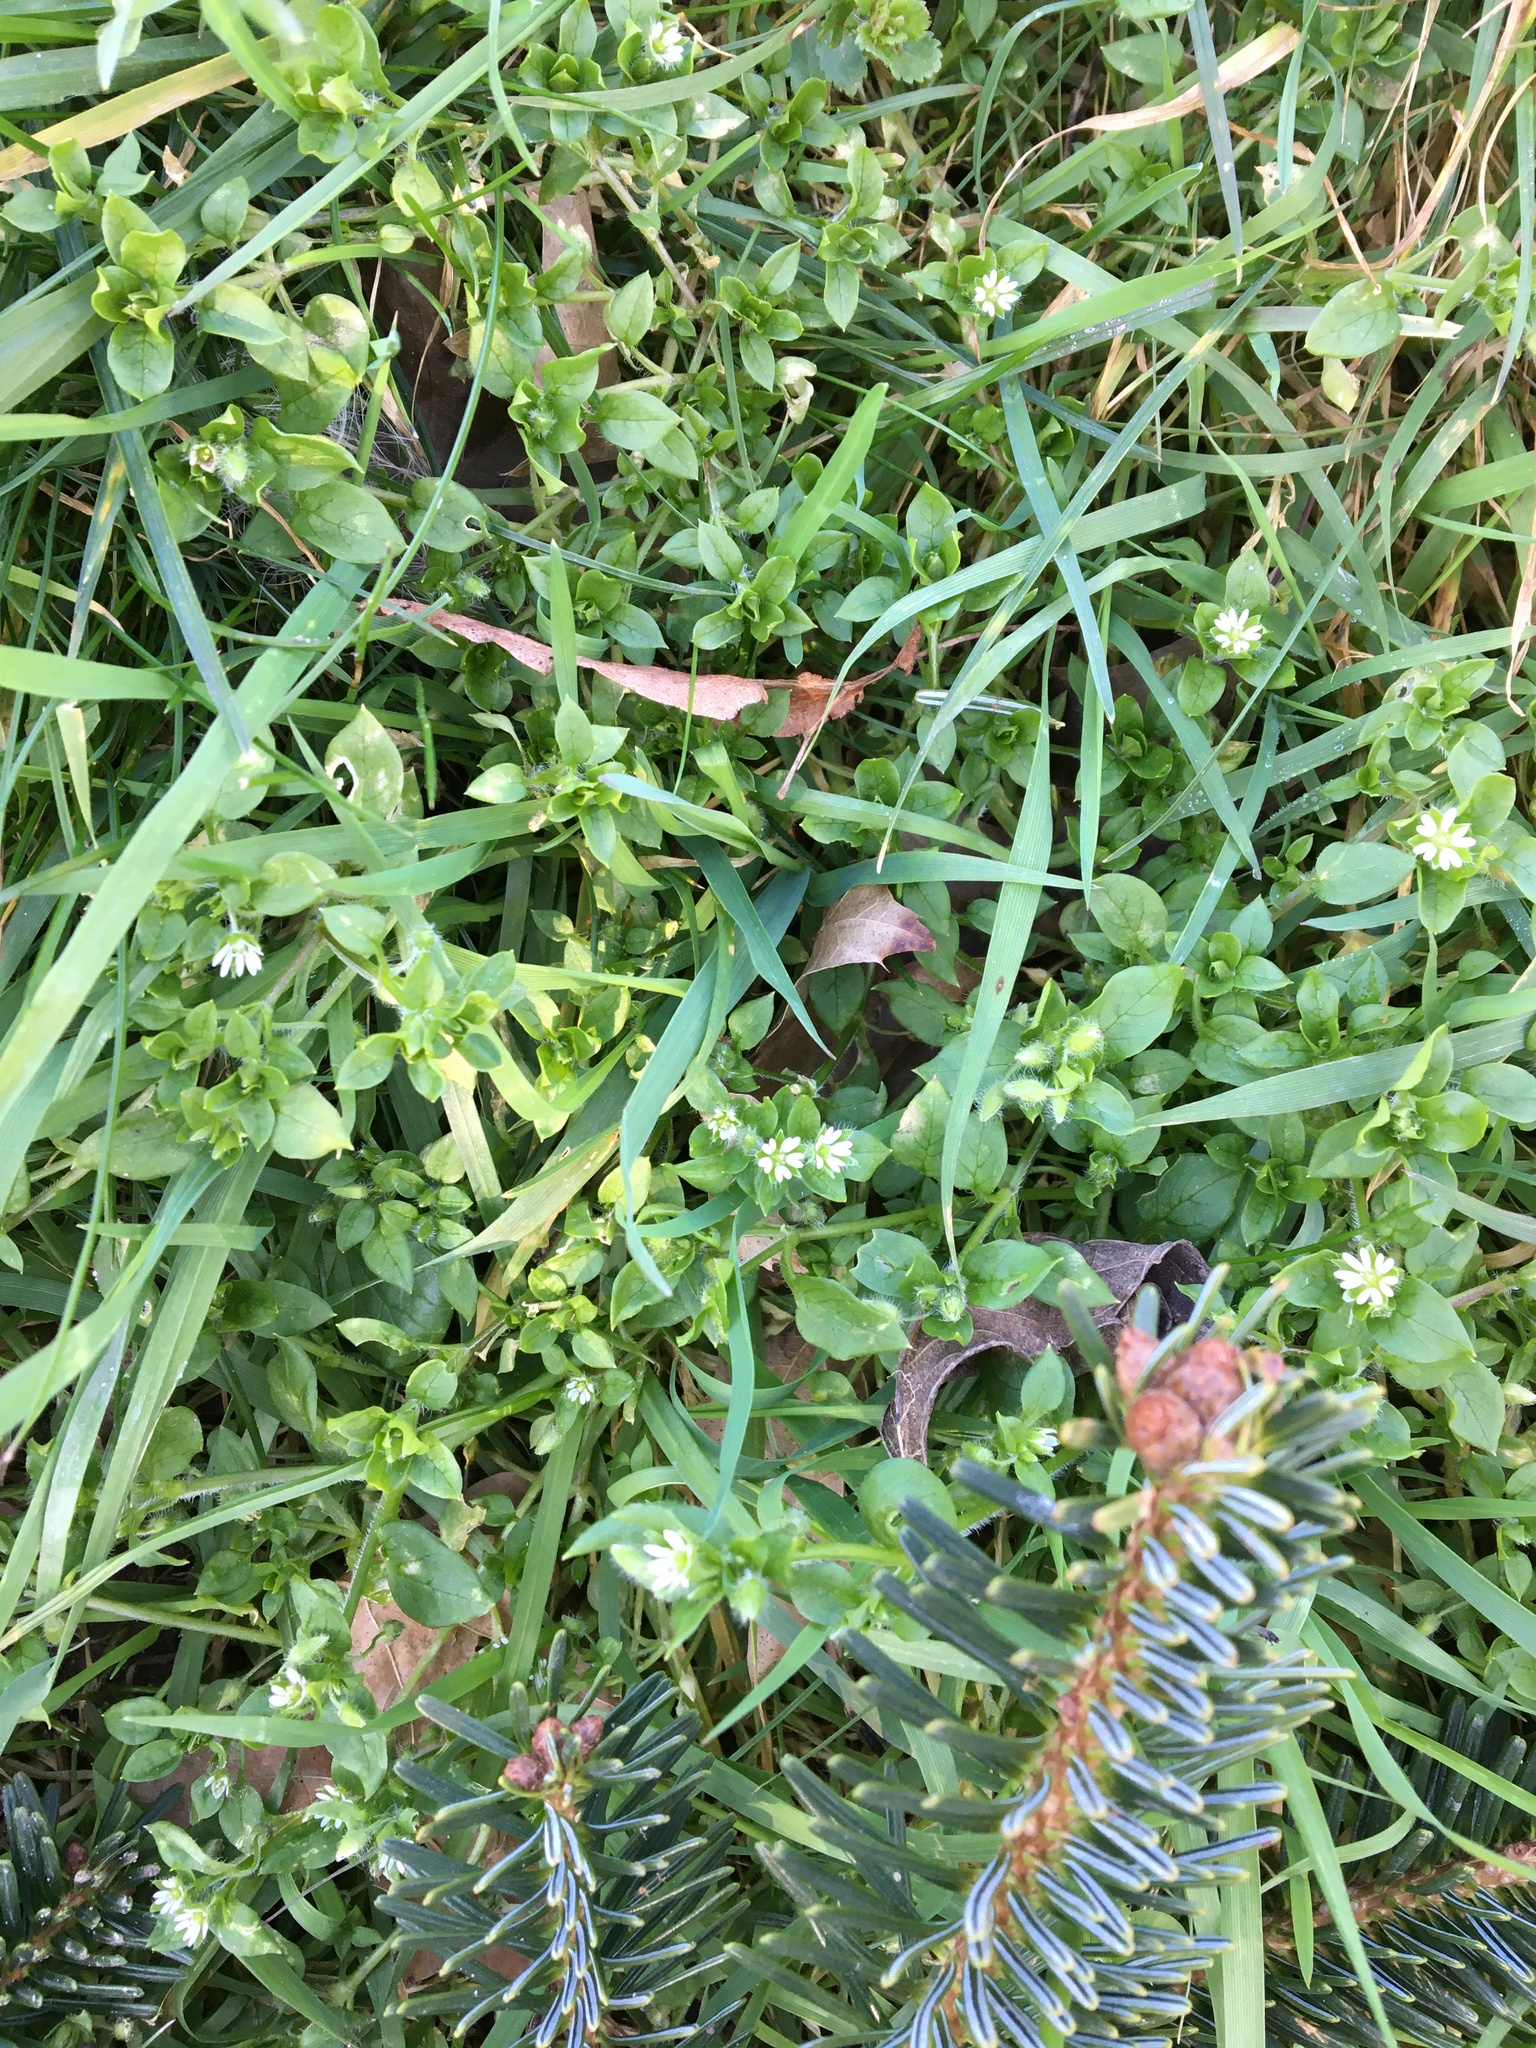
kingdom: Plantae
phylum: Tracheophyta
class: Magnoliopsida
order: Caryophyllales
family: Caryophyllaceae
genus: Stellaria
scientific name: Stellaria media
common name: Common chickweed
